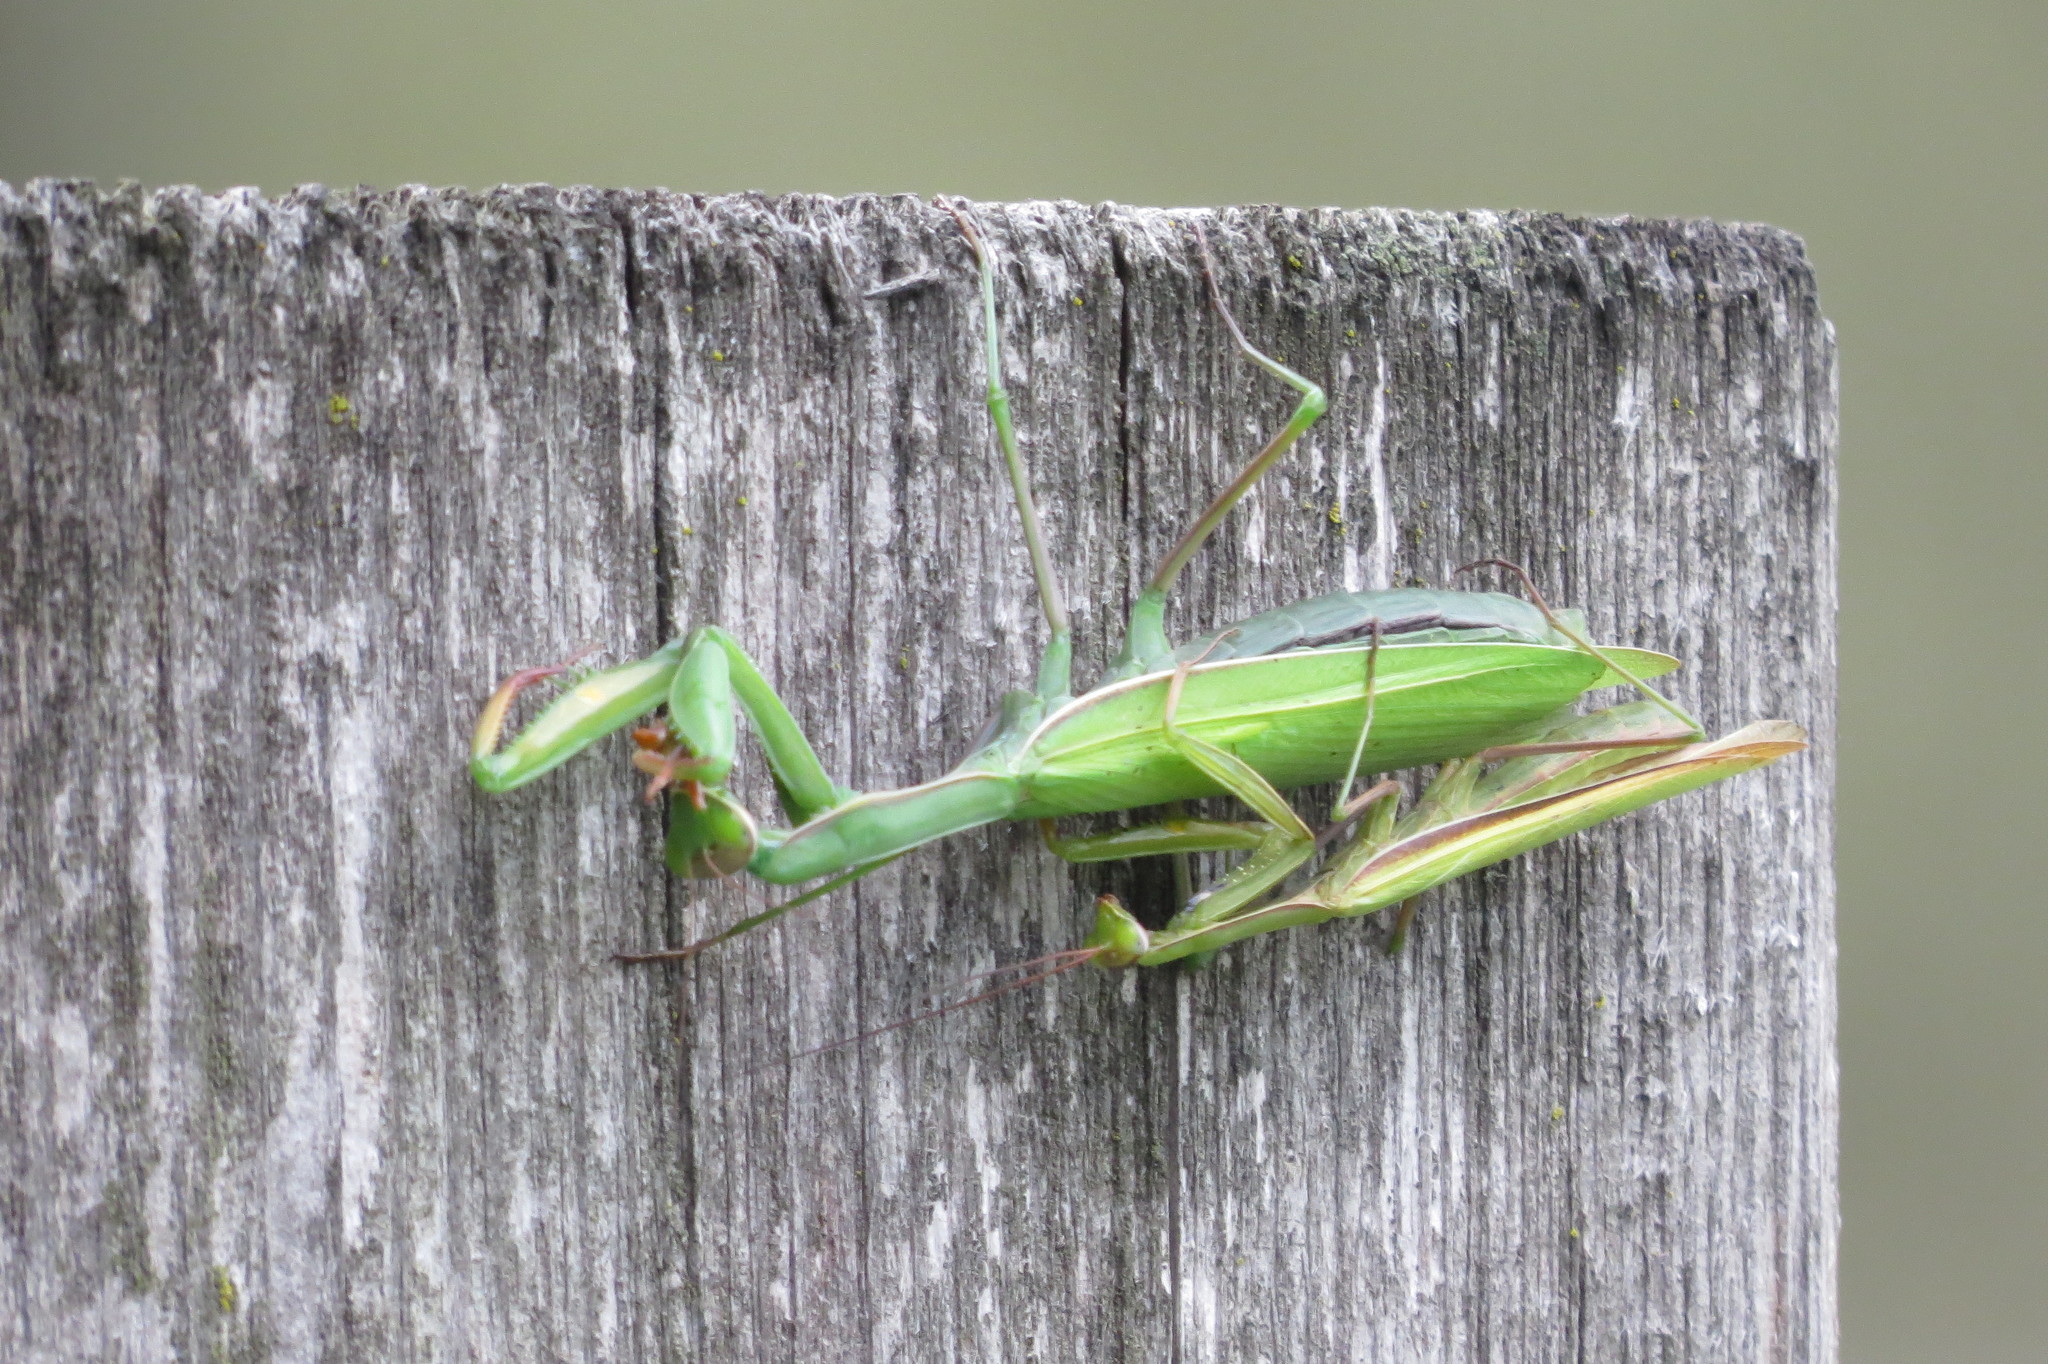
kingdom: Animalia
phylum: Arthropoda
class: Insecta
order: Mantodea
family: Mantidae
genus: Mantis
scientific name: Mantis religiosa
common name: Praying mantis
